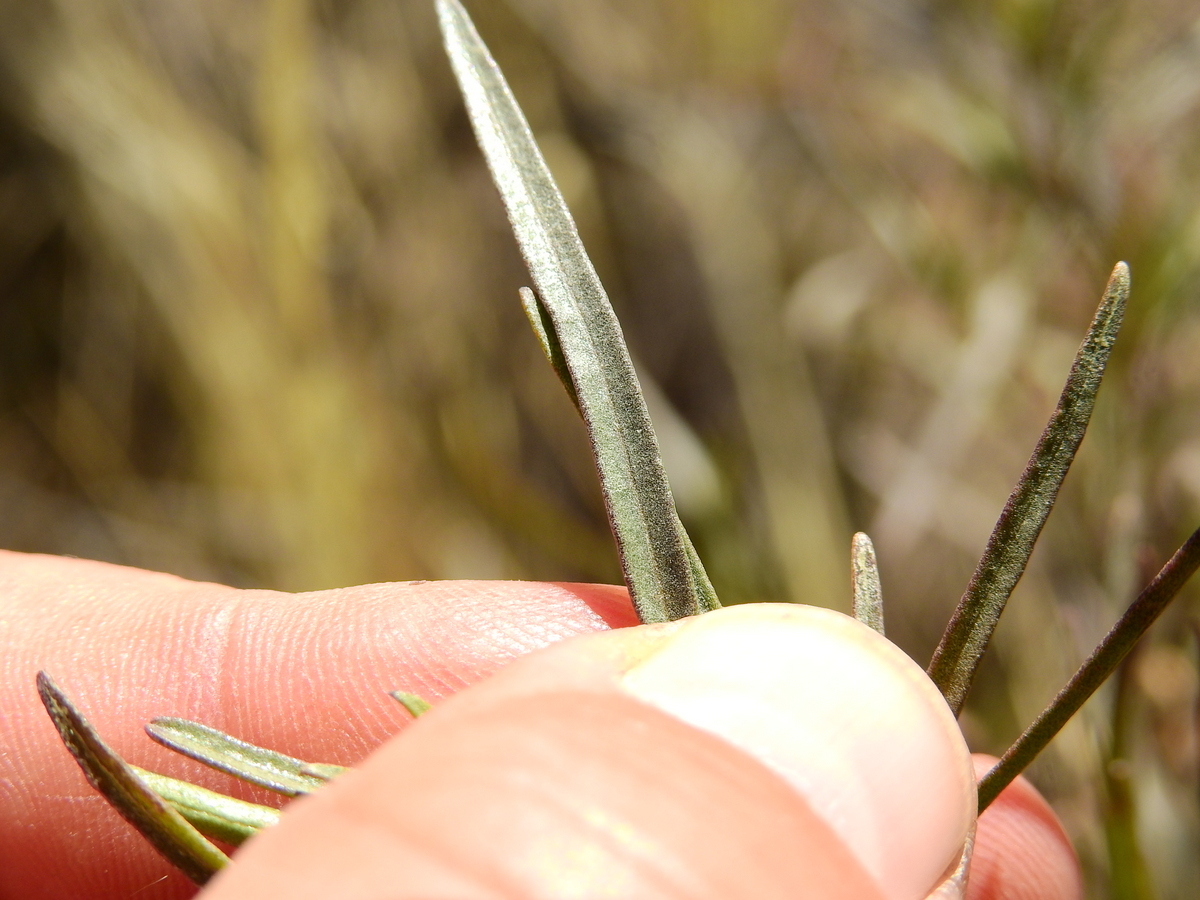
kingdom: Plantae
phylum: Tracheophyta
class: Magnoliopsida
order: Asterales
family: Asteraceae
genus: Acanthostyles
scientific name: Acanthostyles buniifolius
